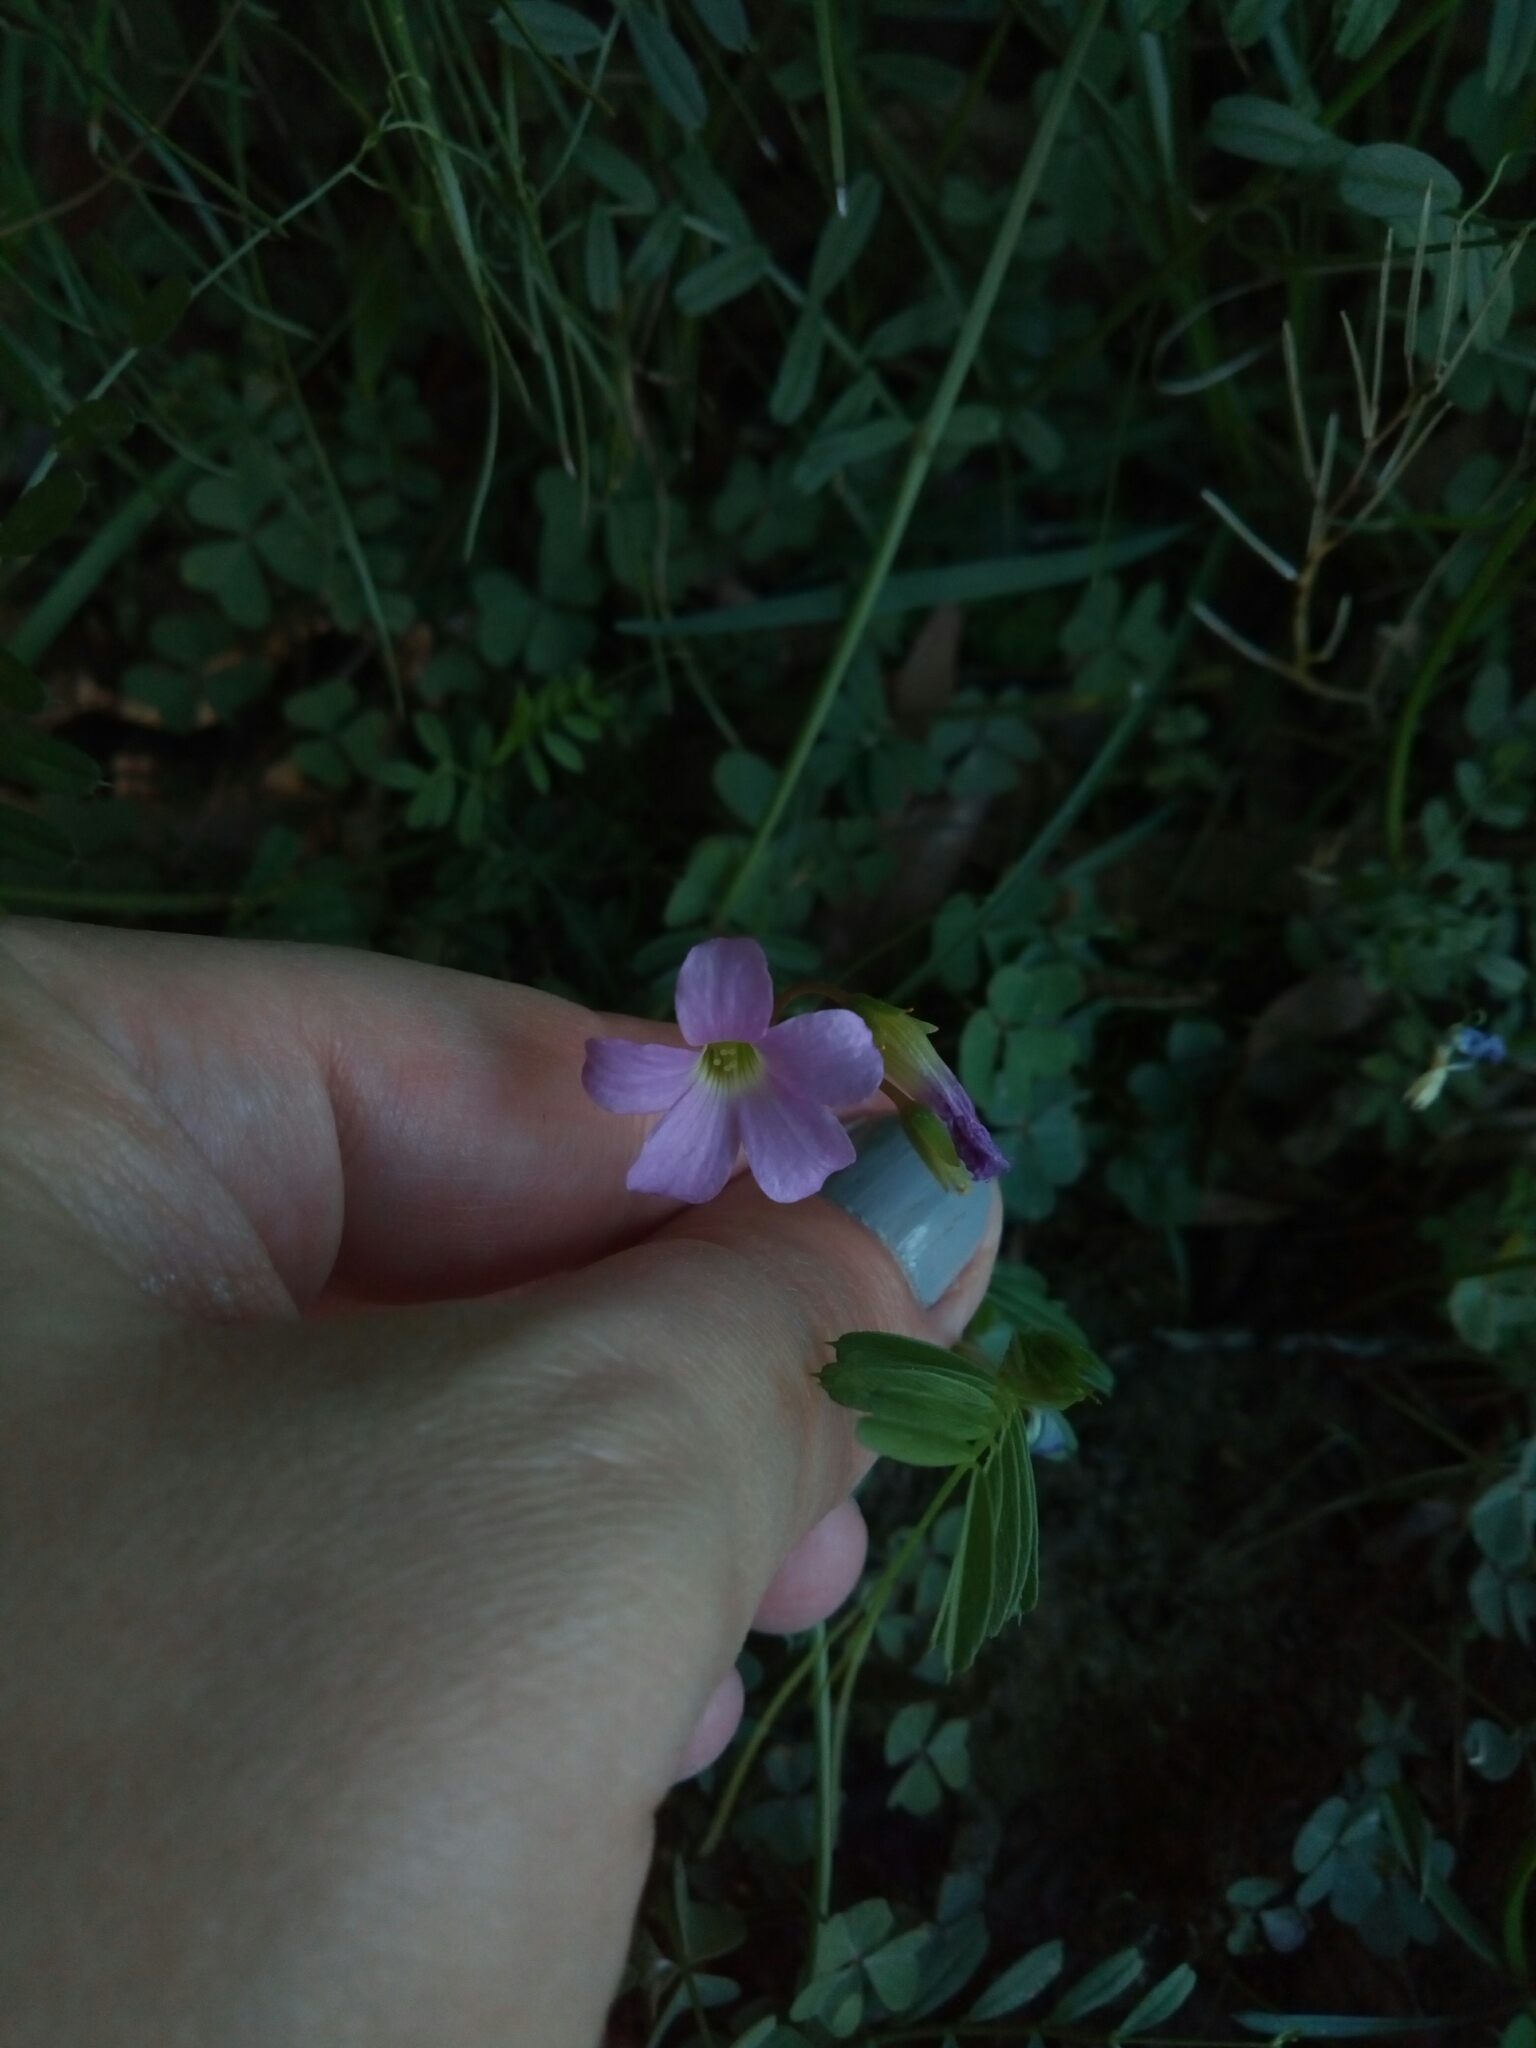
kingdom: Plantae
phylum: Tracheophyta
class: Magnoliopsida
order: Oxalidales
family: Oxalidaceae
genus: Oxalis
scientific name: Oxalis violacea
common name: Violet wood-sorrel
